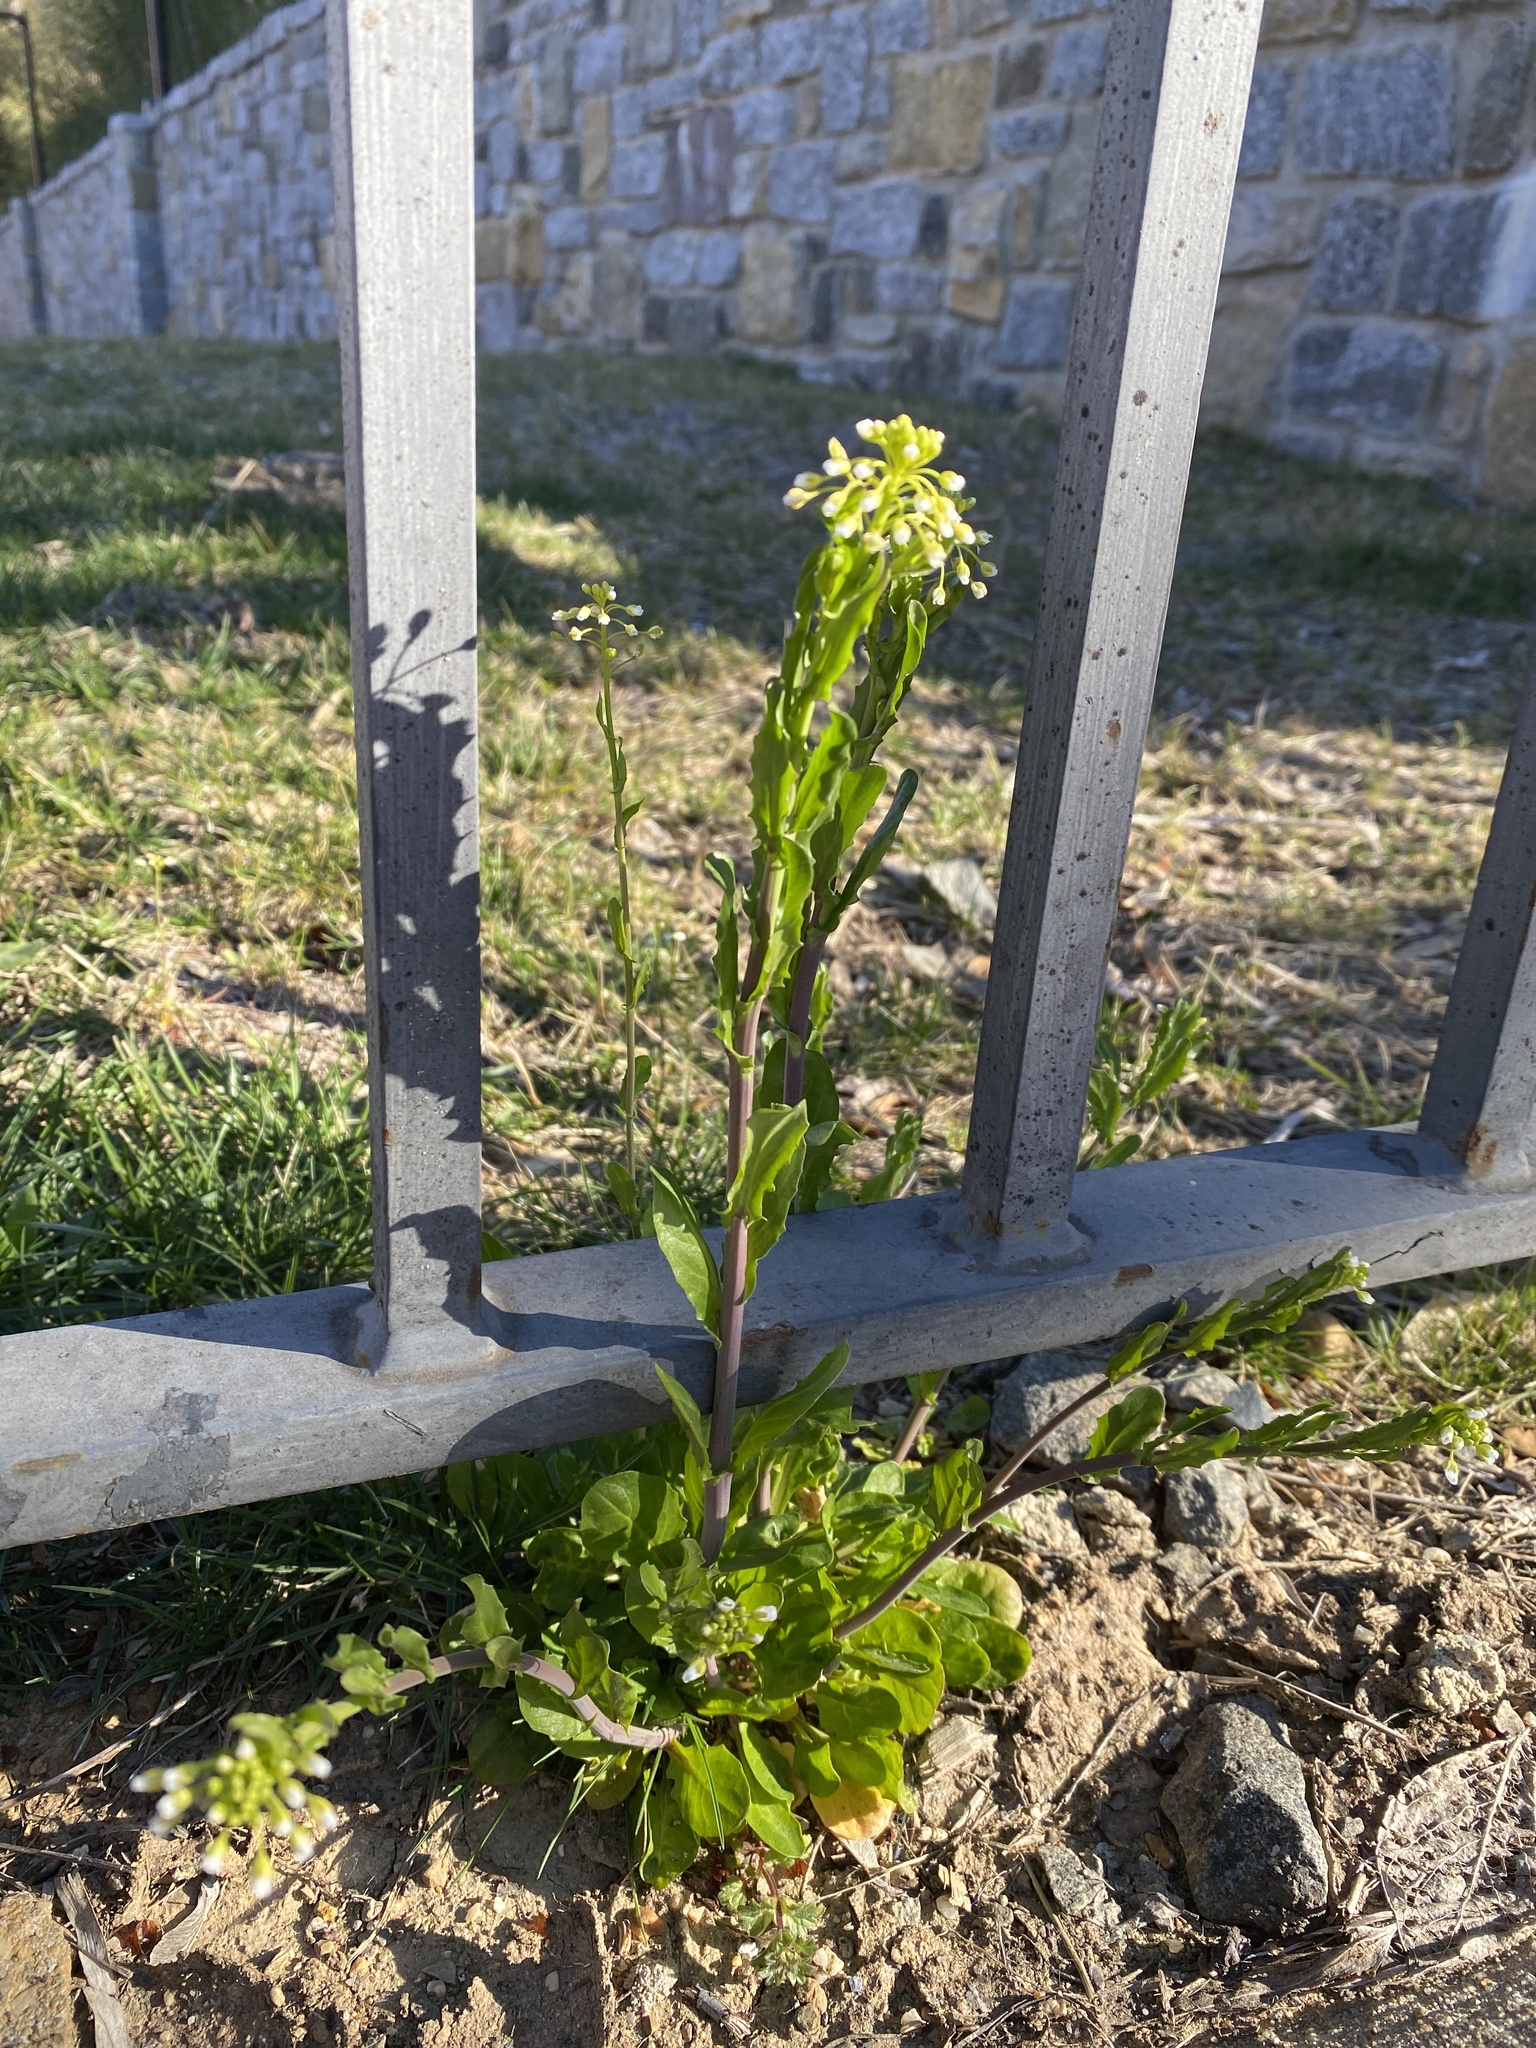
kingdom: Plantae
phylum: Tracheophyta
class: Magnoliopsida
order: Brassicales
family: Brassicaceae
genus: Mummenhoffia
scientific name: Mummenhoffia alliacea
